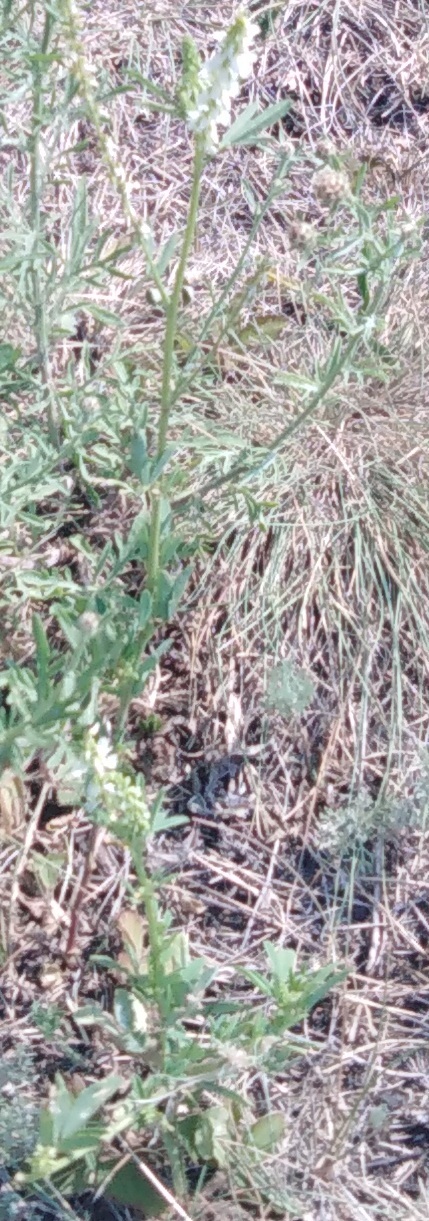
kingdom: Plantae
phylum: Tracheophyta
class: Magnoliopsida
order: Fabales
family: Fabaceae
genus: Melilotus
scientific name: Melilotus albus
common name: White melilot
